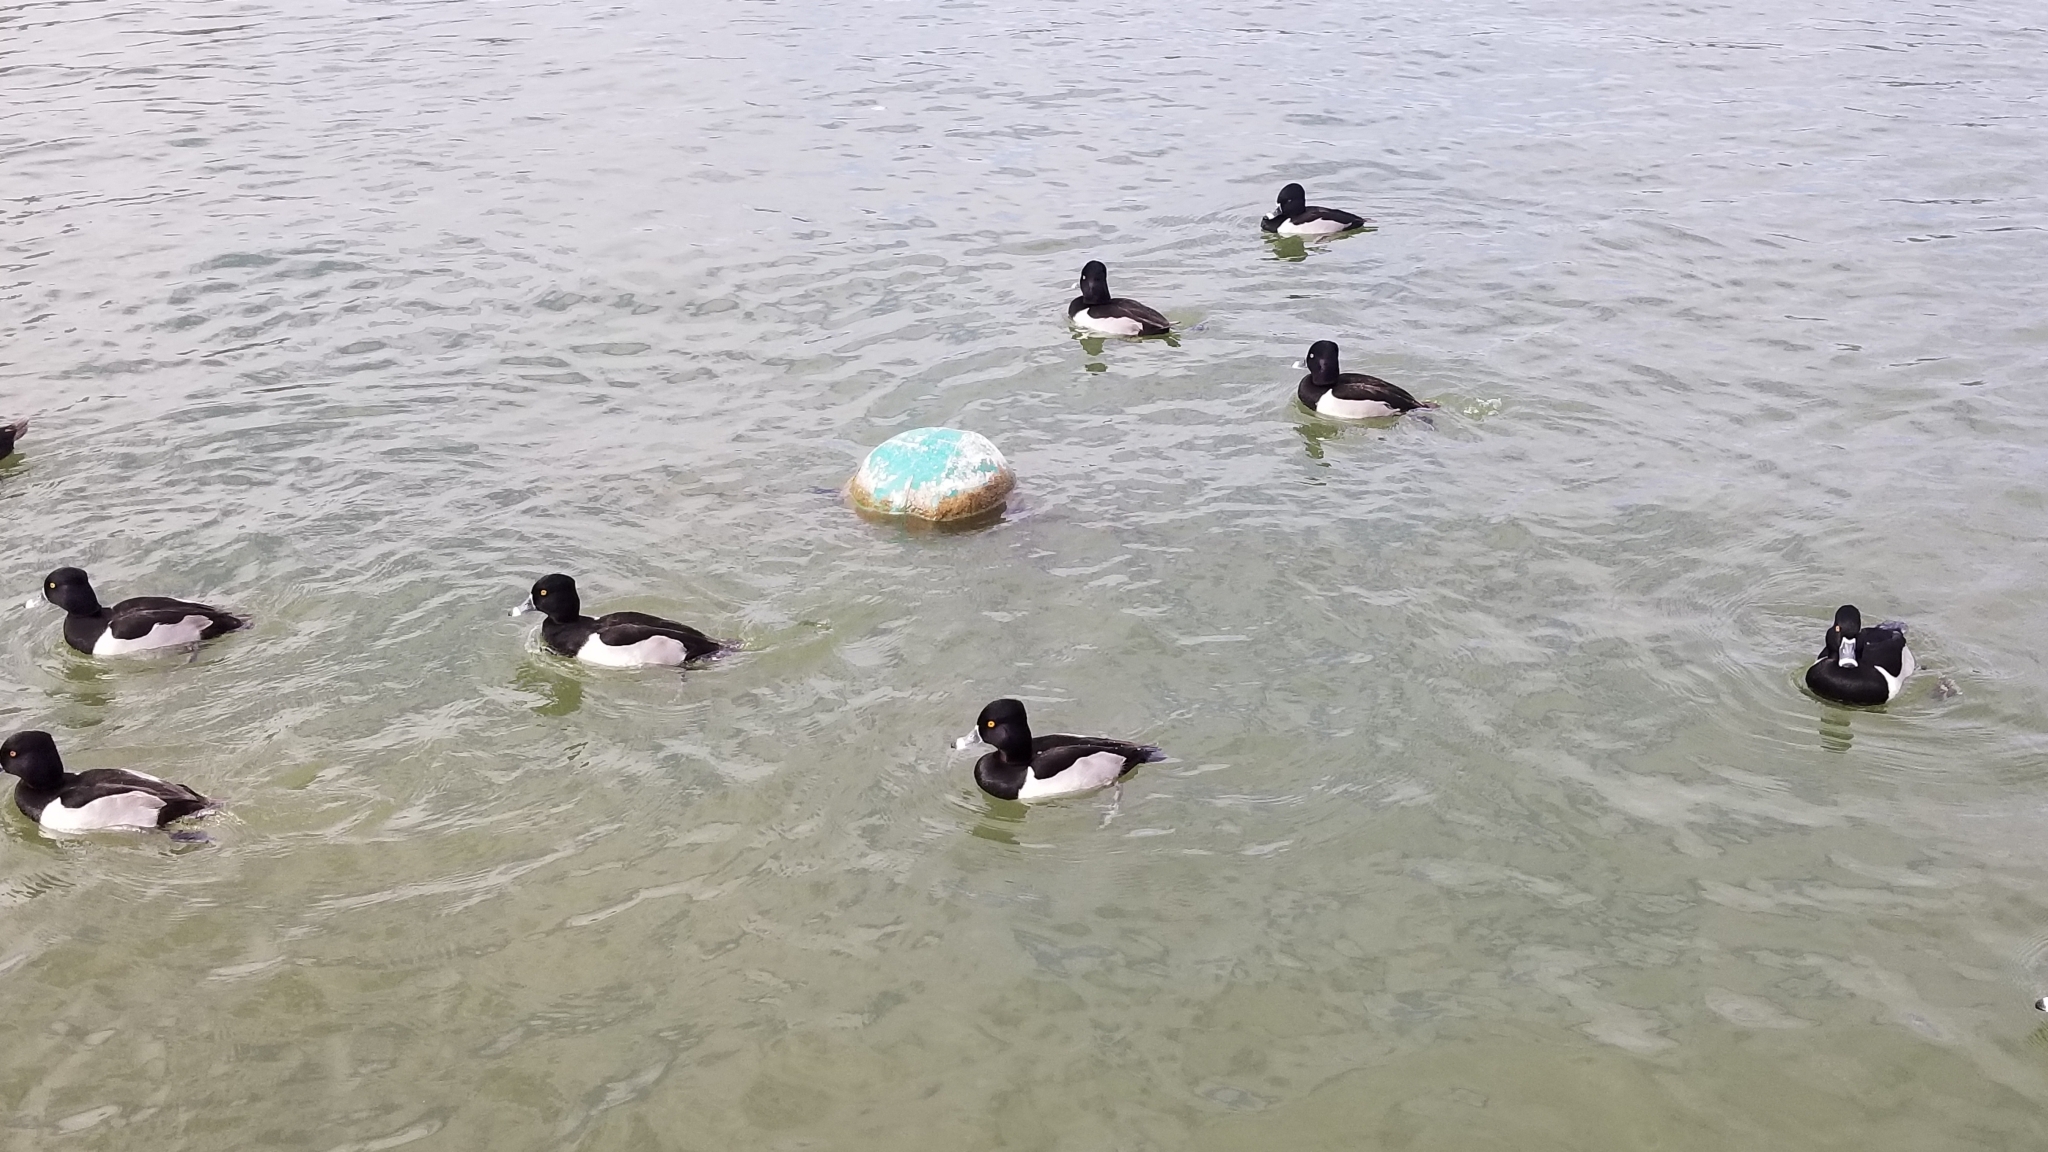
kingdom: Animalia
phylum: Chordata
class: Aves
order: Anseriformes
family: Anatidae
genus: Aythya
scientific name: Aythya collaris
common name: Ring-necked duck
